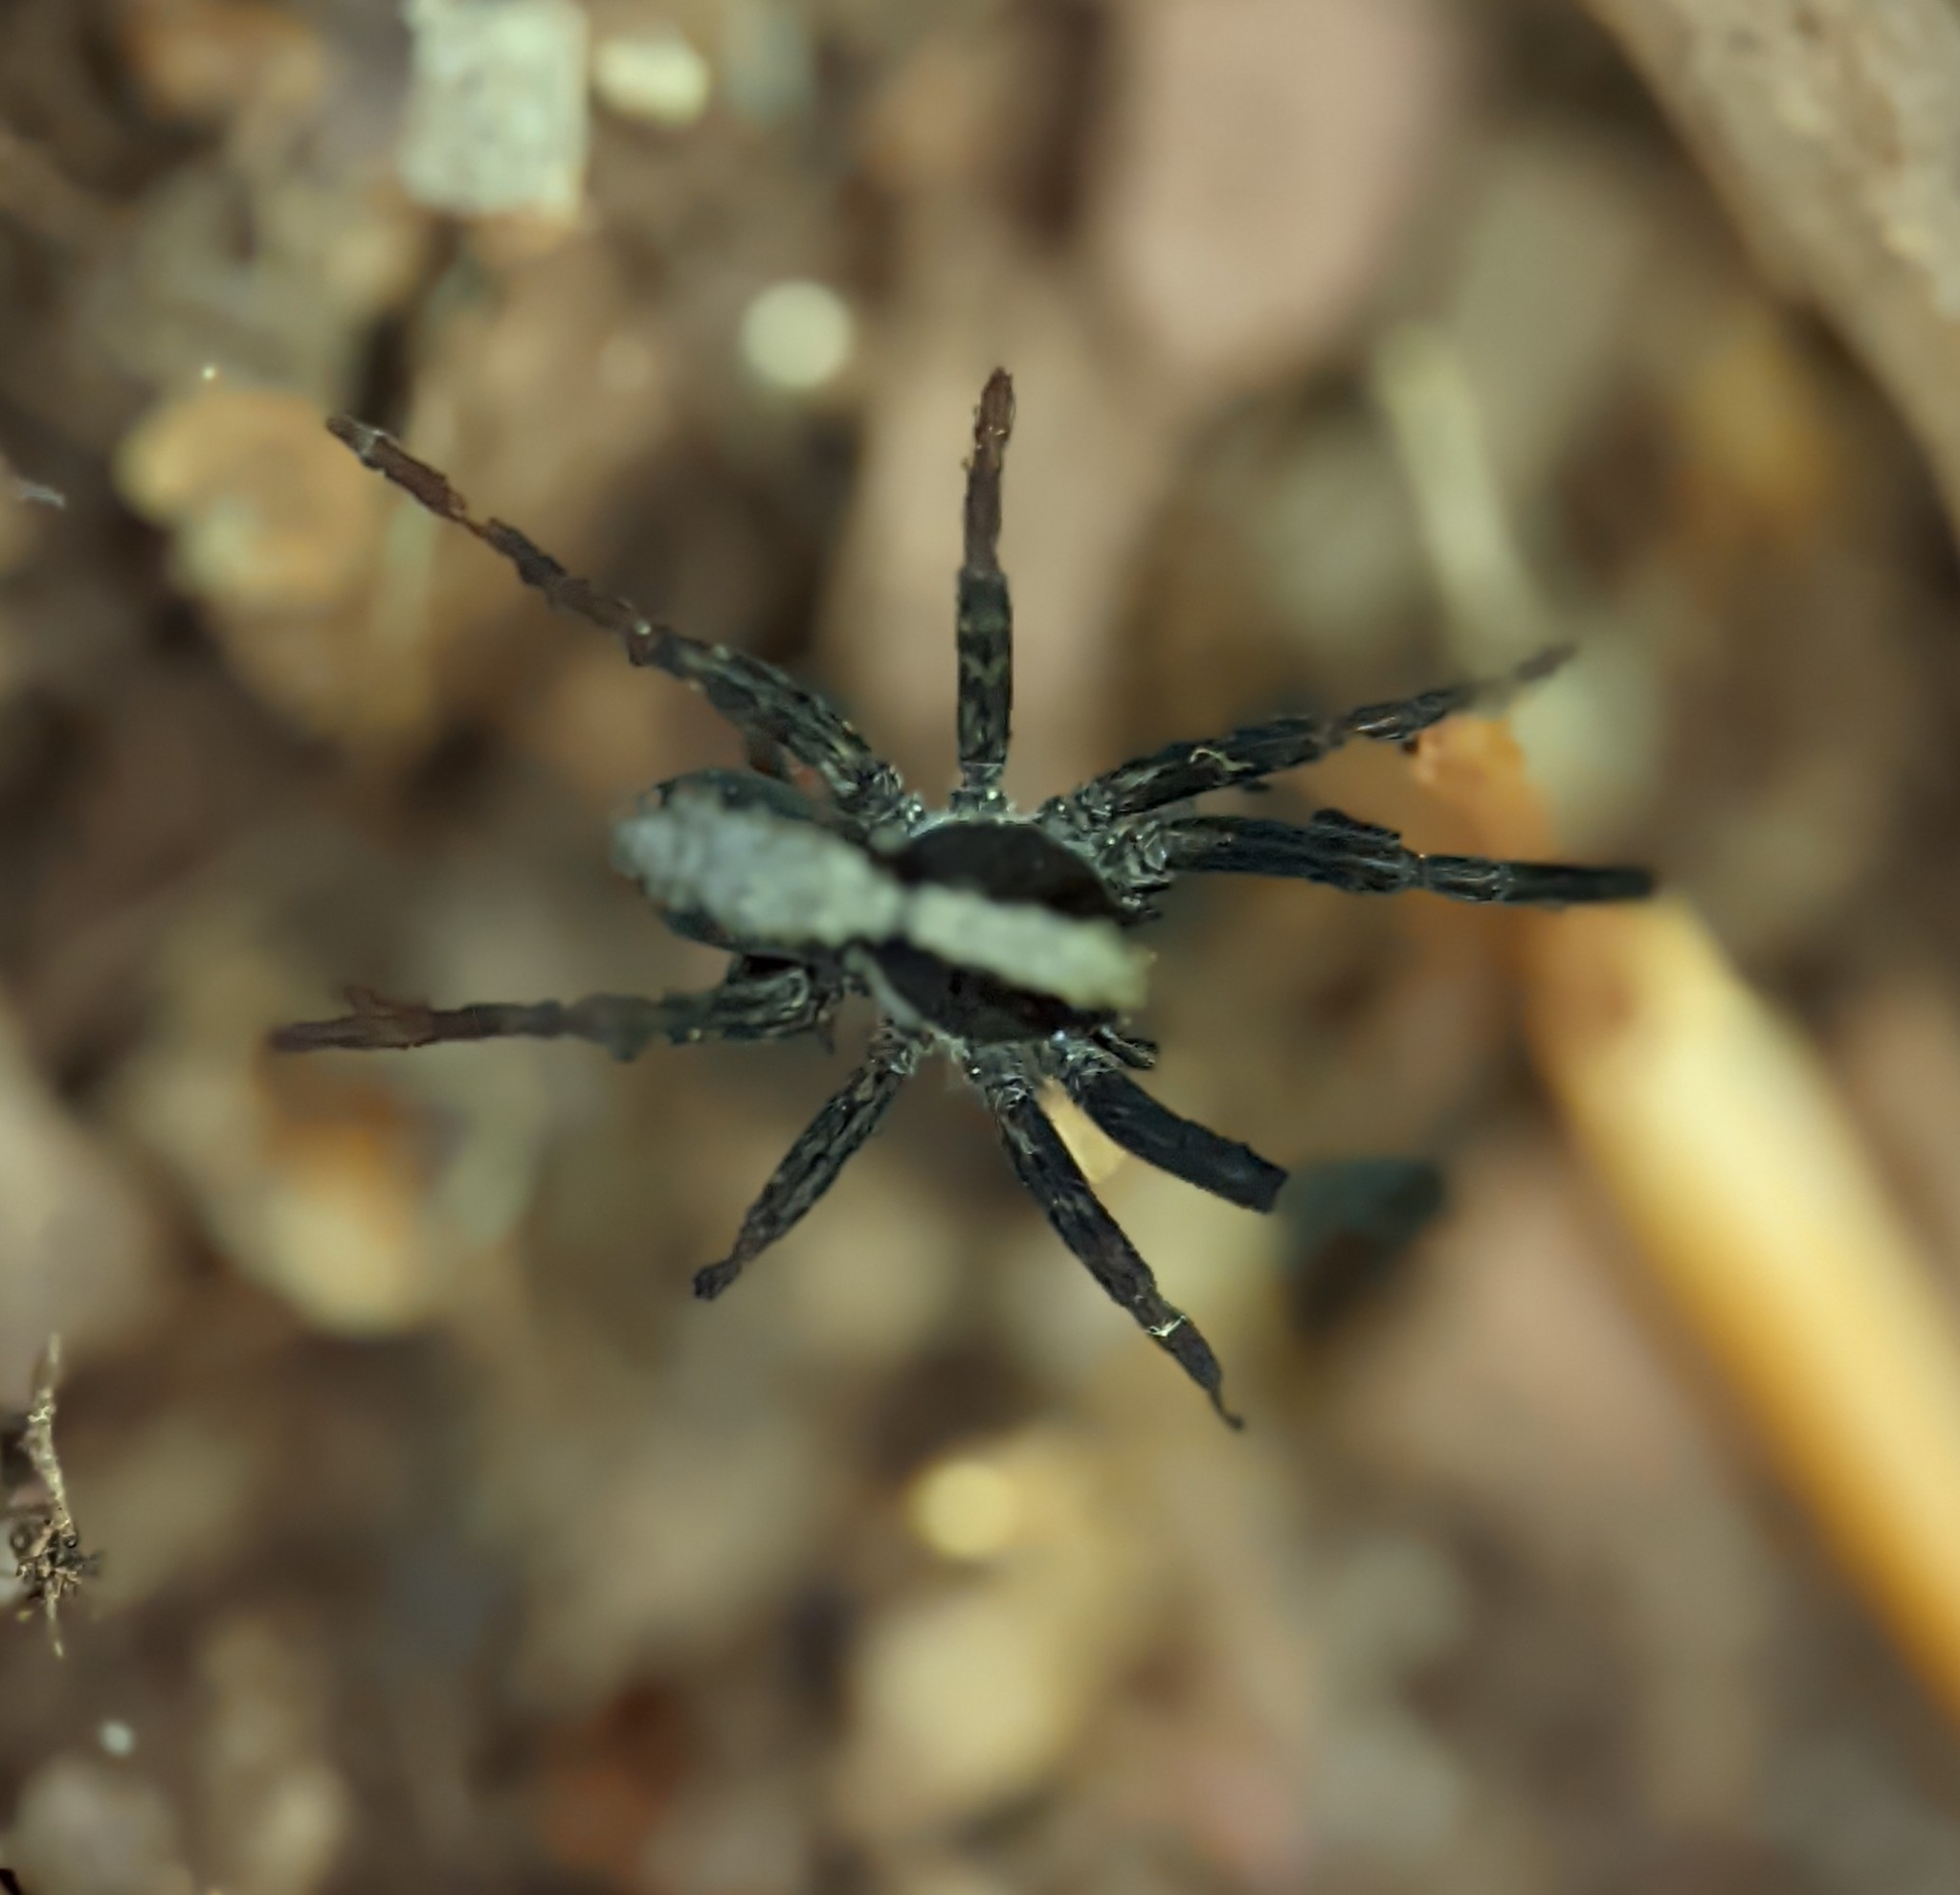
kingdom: Animalia
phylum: Arthropoda
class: Arachnida
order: Araneae
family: Lycosidae
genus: Schizocosa
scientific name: Schizocosa crassipes
